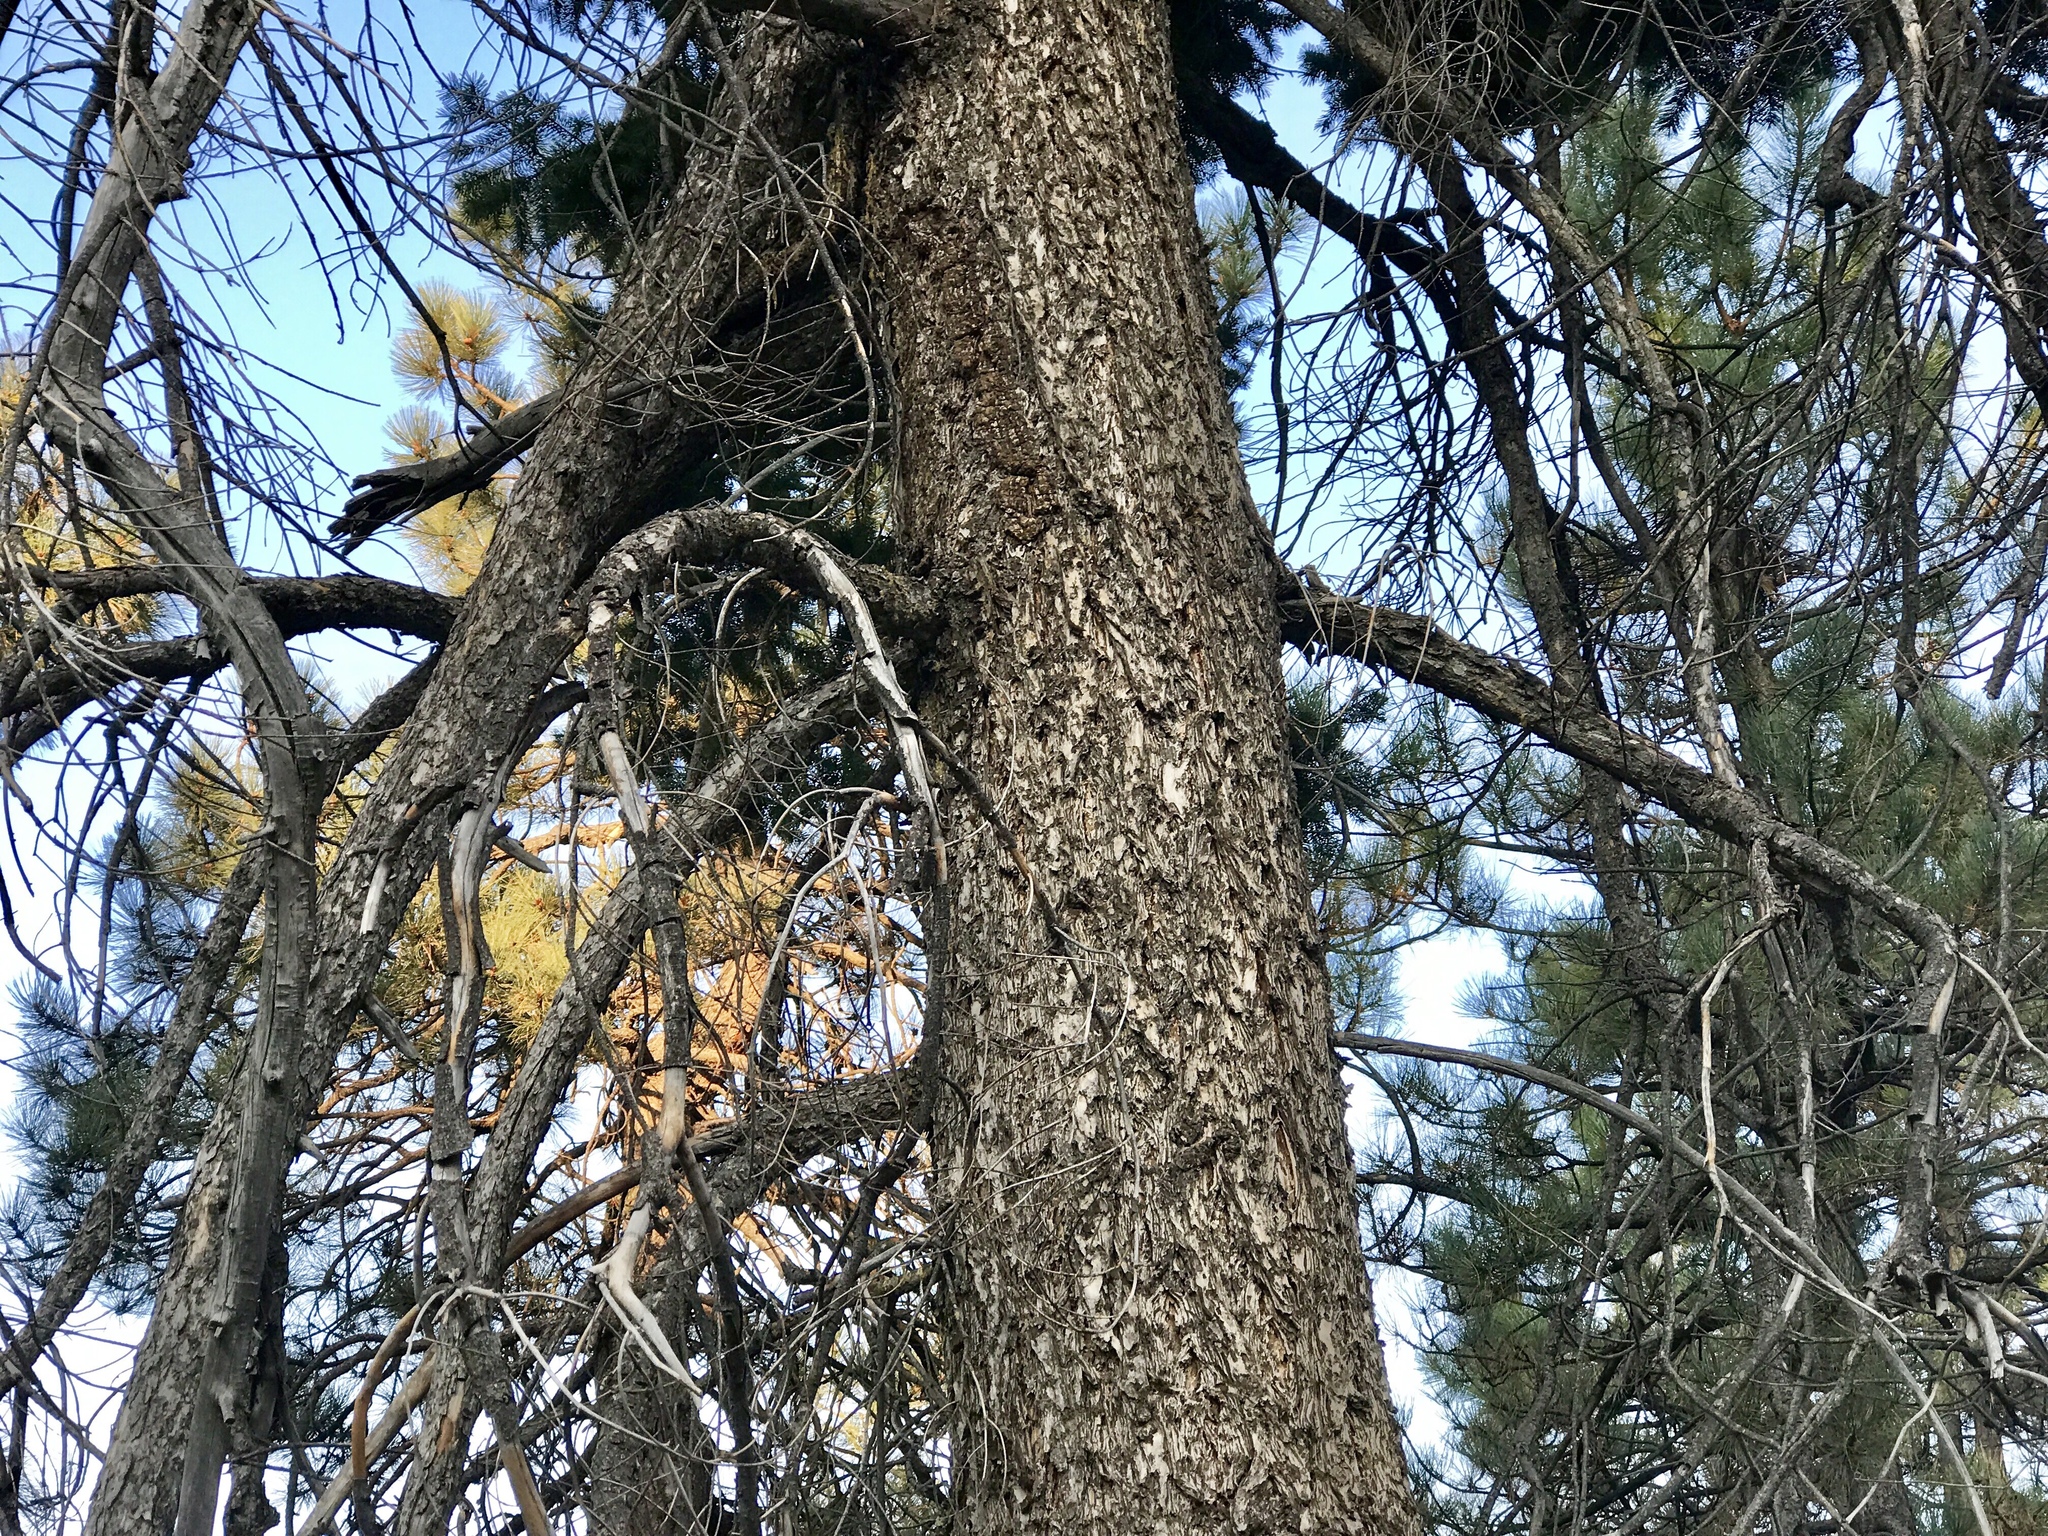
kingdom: Plantae
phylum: Tracheophyta
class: Pinopsida
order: Pinales
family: Pinaceae
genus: Pseudotsuga
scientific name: Pseudotsuga menziesii
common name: Douglas fir
